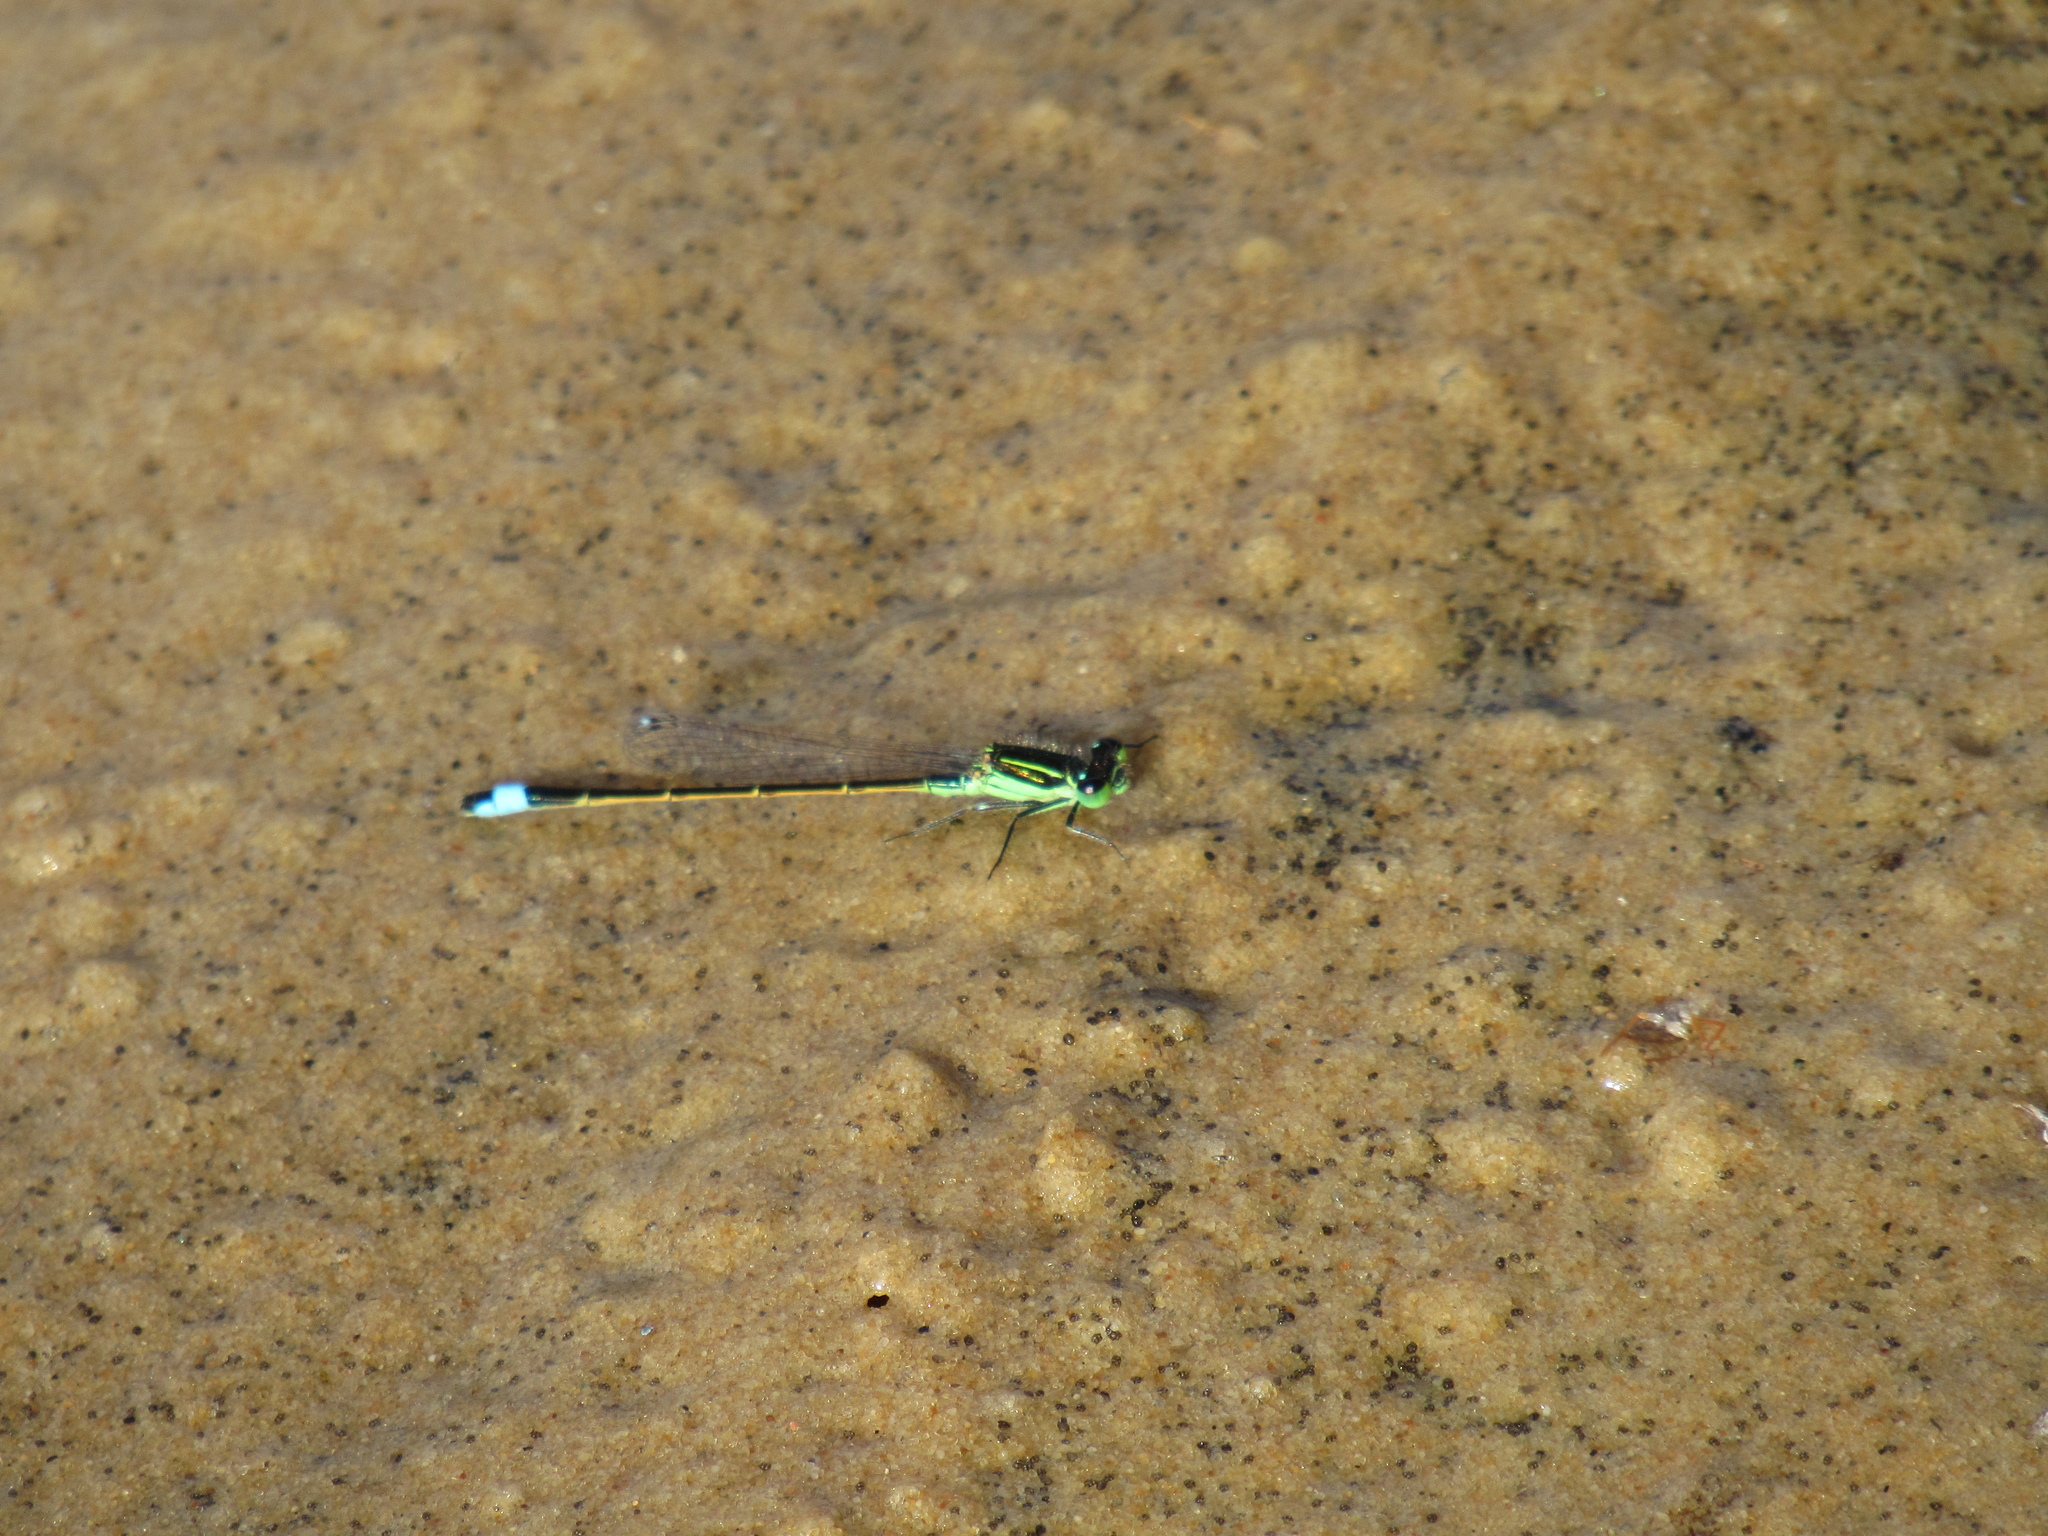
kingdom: Animalia
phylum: Arthropoda
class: Insecta
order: Odonata
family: Coenagrionidae
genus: Ischnura
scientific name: Ischnura ramburii
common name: Rambur's forktail
